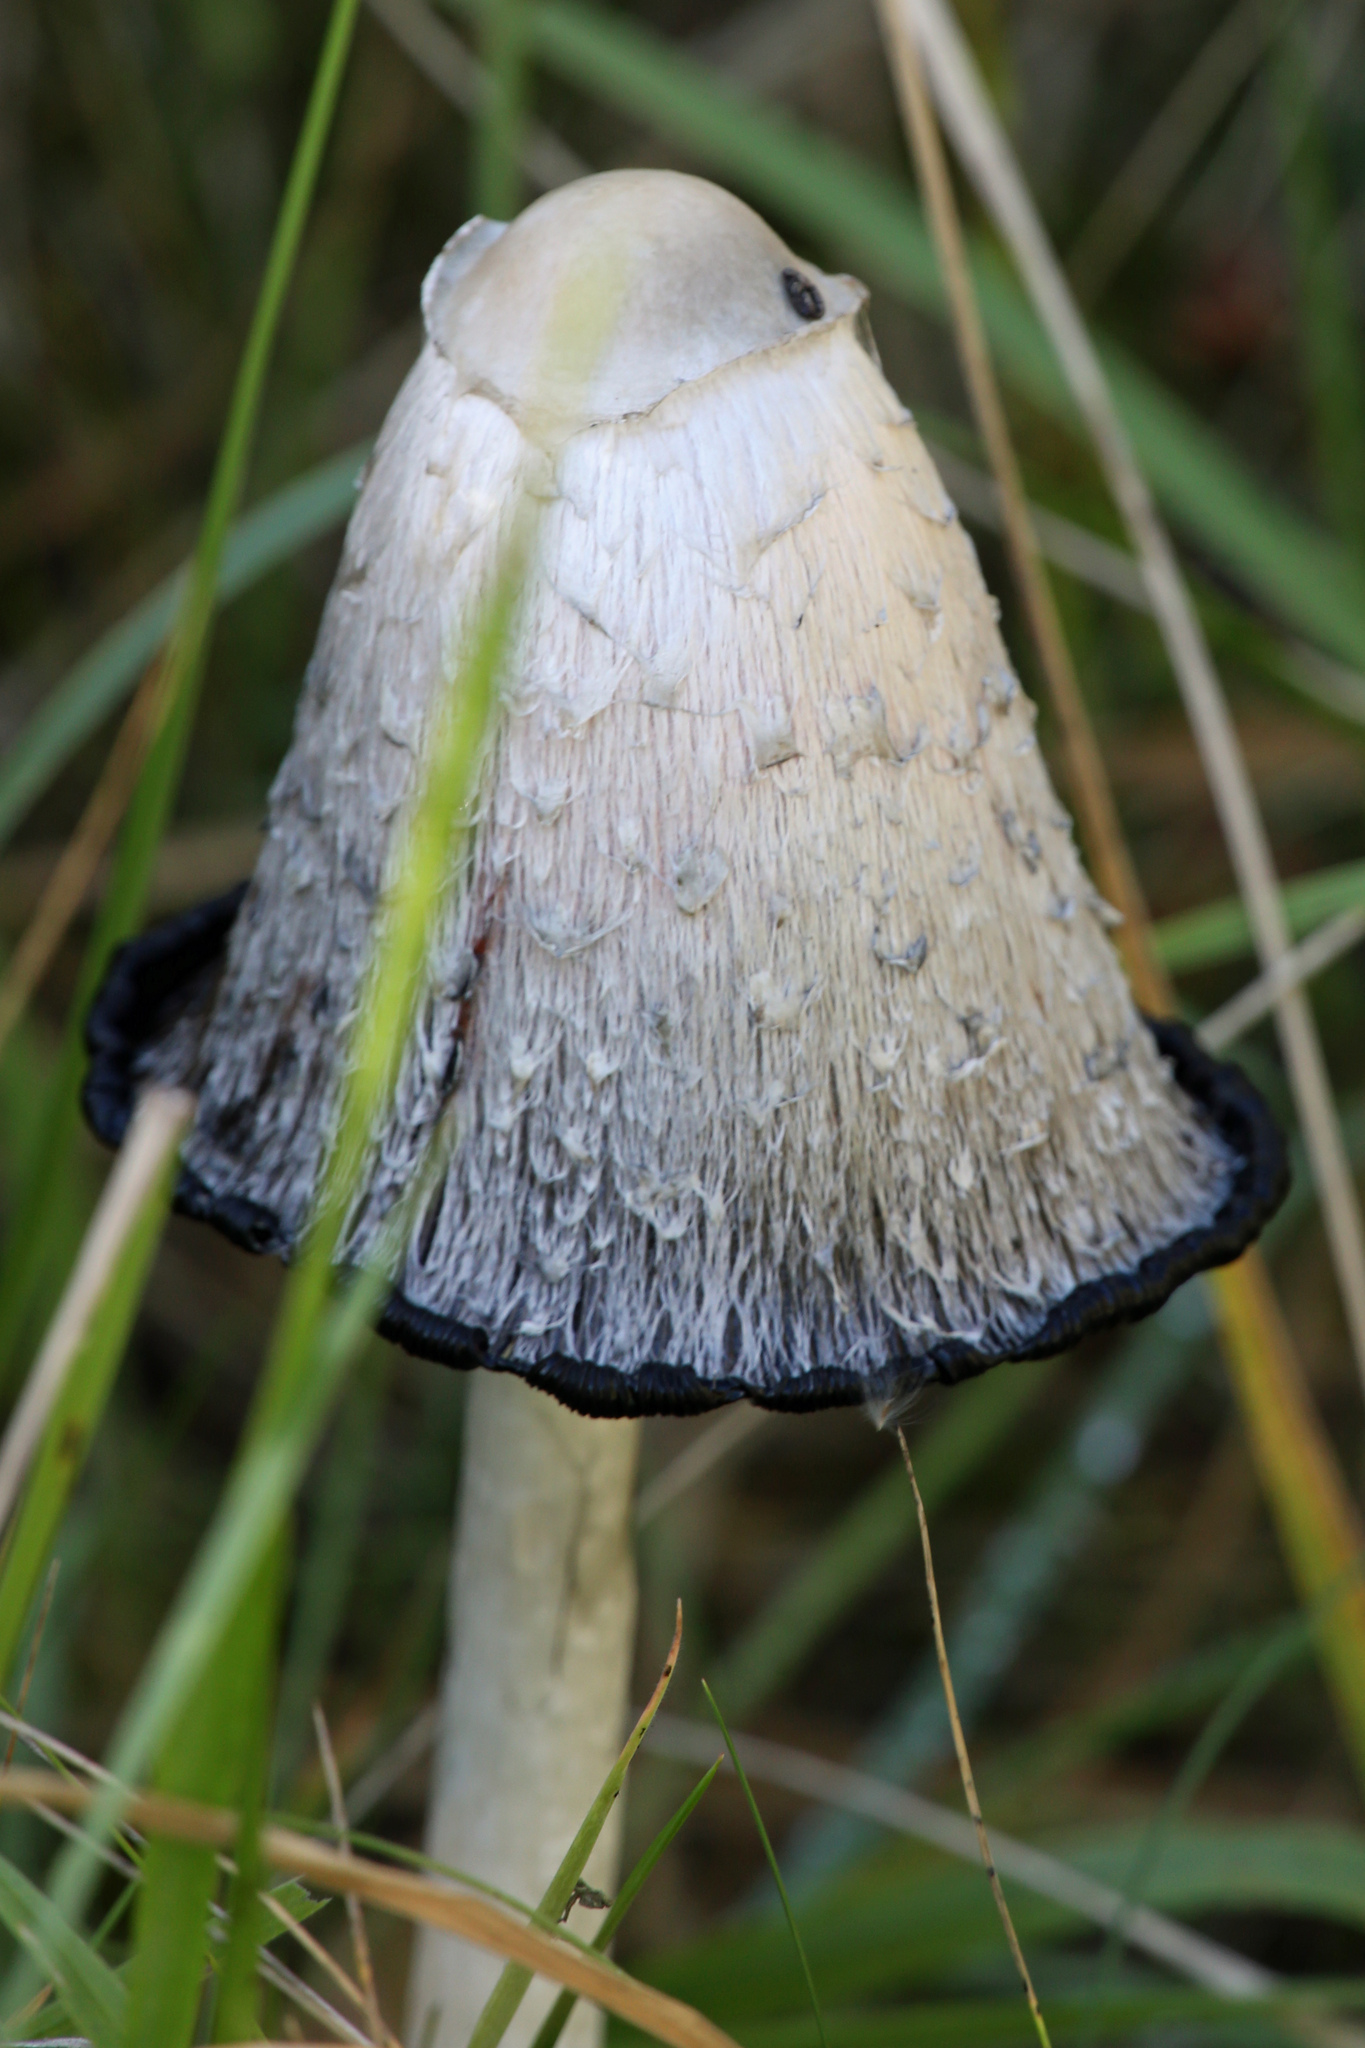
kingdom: Fungi
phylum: Basidiomycota
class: Agaricomycetes
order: Agaricales
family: Agaricaceae
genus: Coprinus
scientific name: Coprinus comatus
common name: Lawyer's wig
